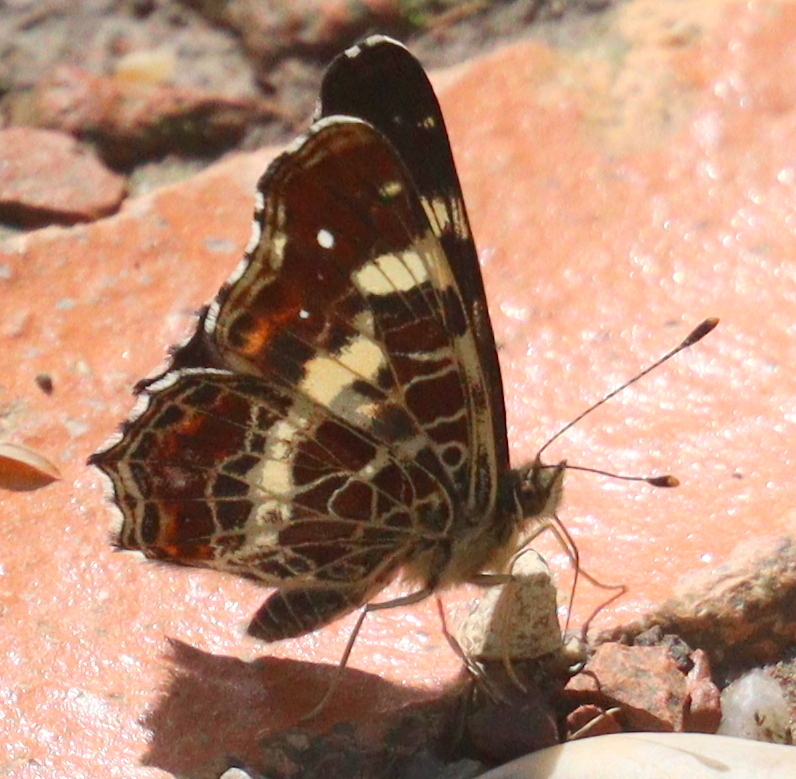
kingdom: Animalia
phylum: Arthropoda
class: Insecta
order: Lepidoptera
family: Nymphalidae
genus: Araschnia
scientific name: Araschnia levana
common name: Map butterfly
